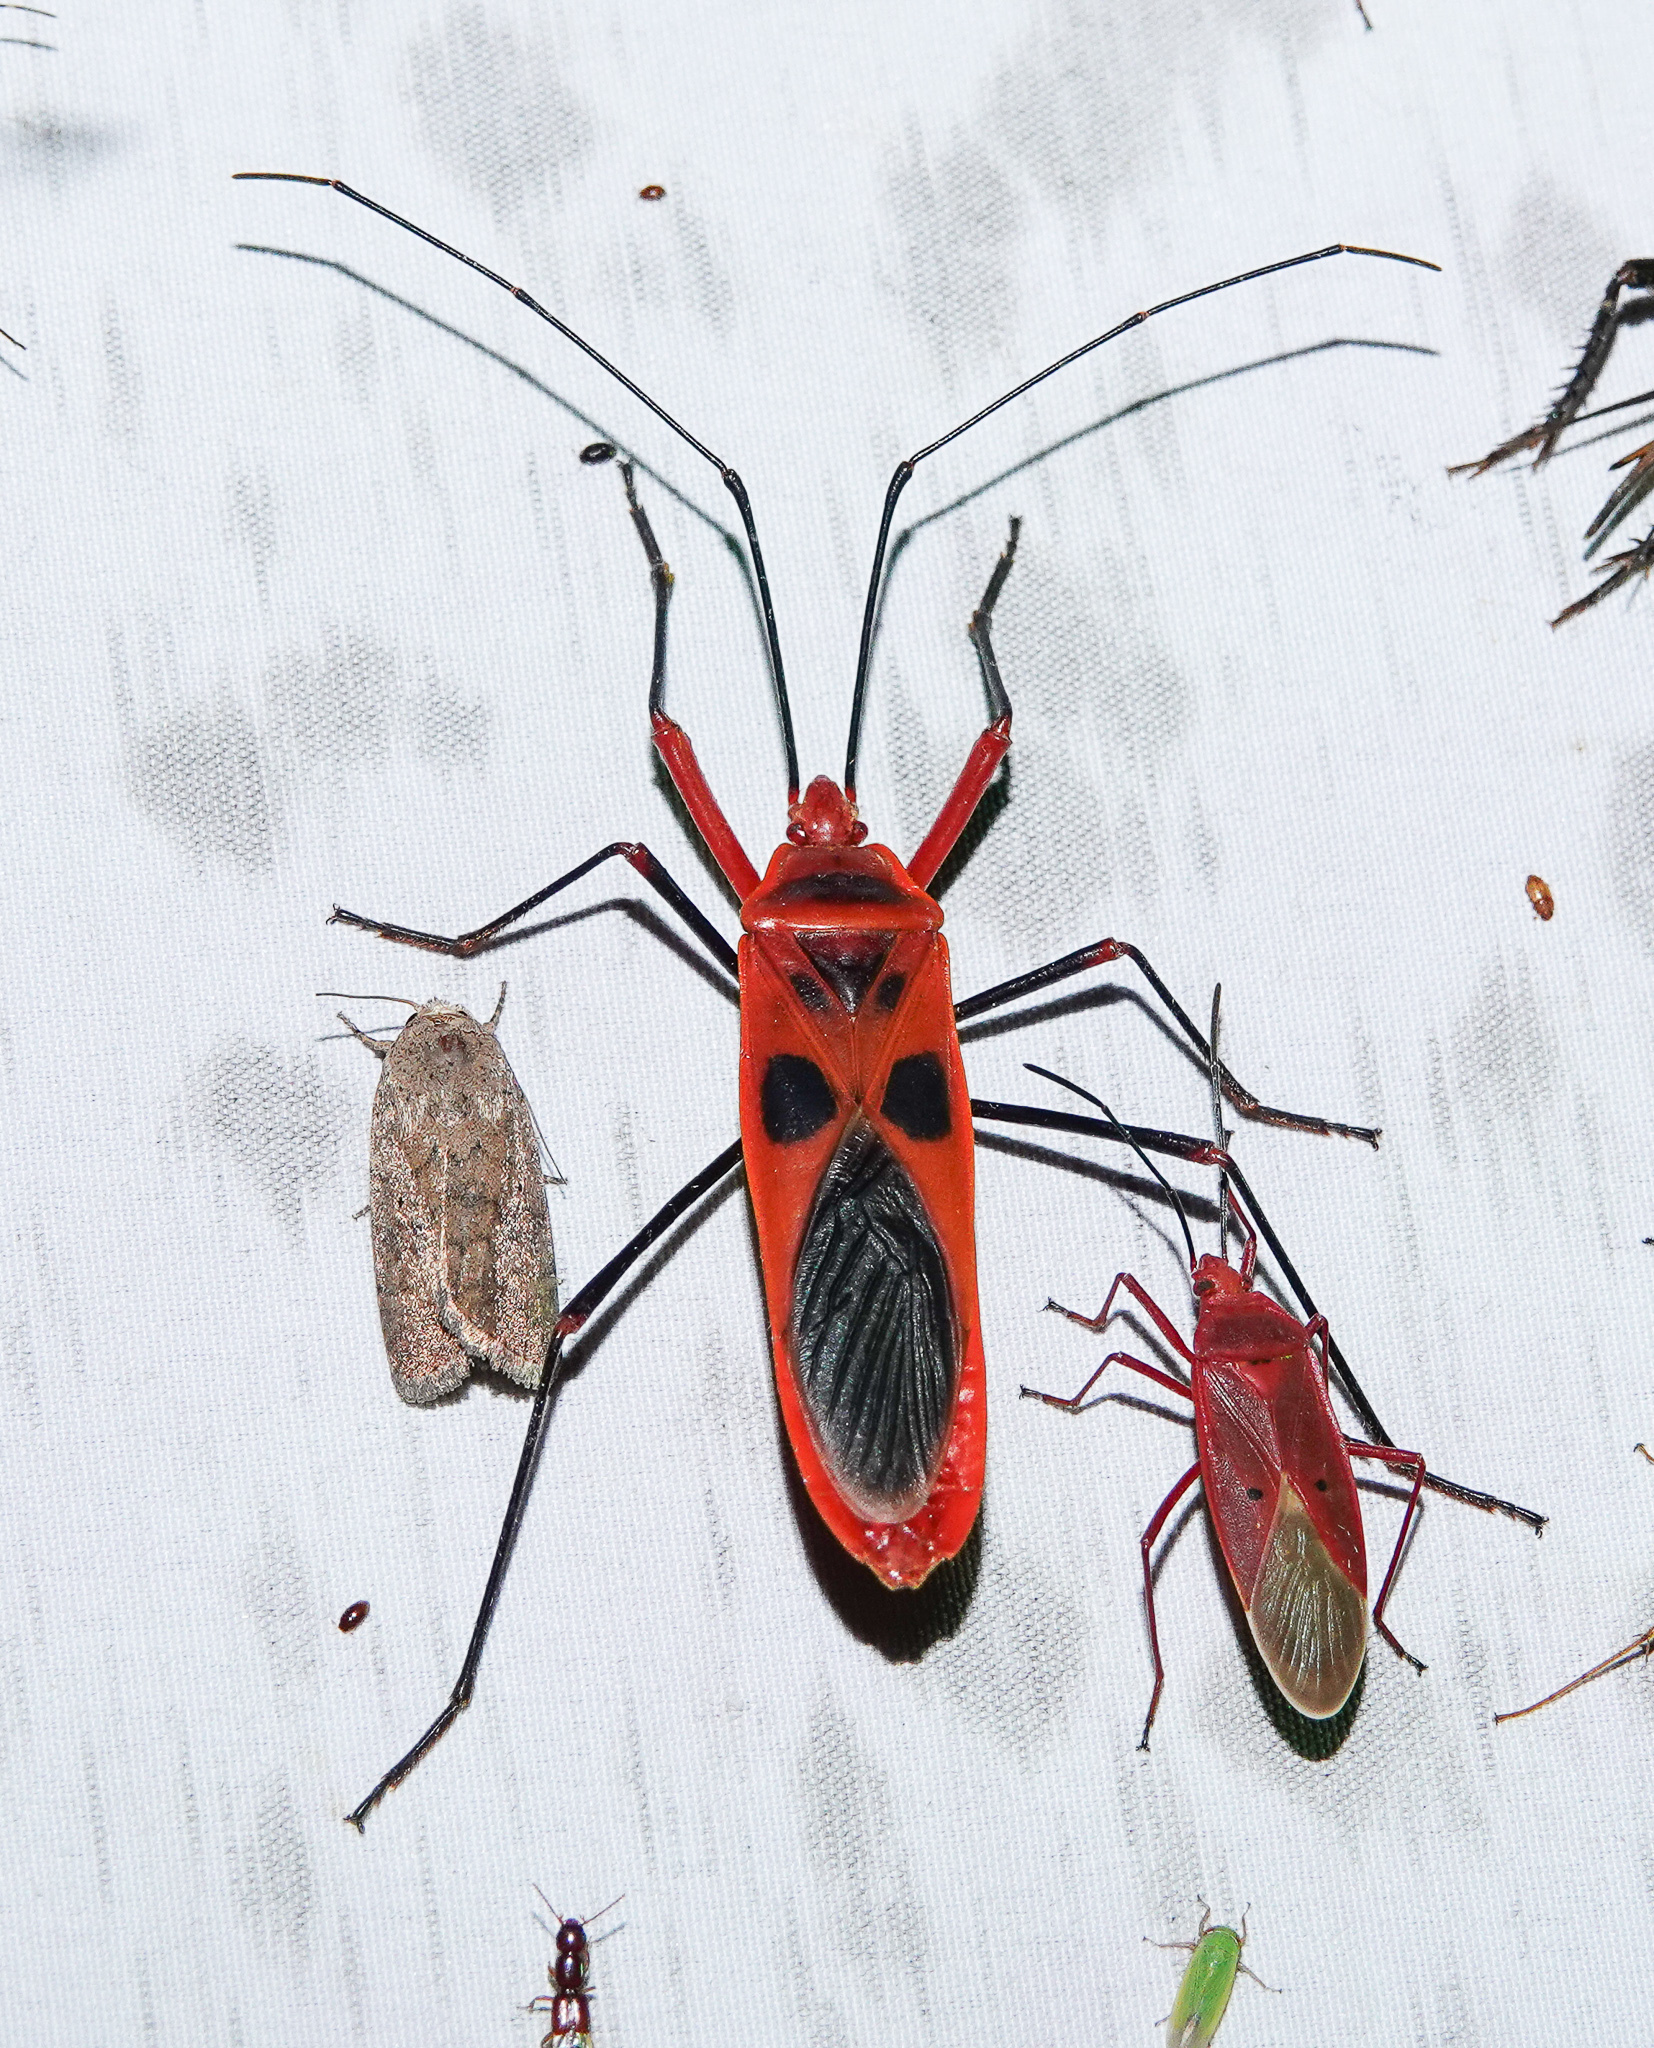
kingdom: Animalia
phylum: Arthropoda
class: Insecta
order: Hemiptera
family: Largidae
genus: Macrocheraia
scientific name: Macrocheraia grandis
